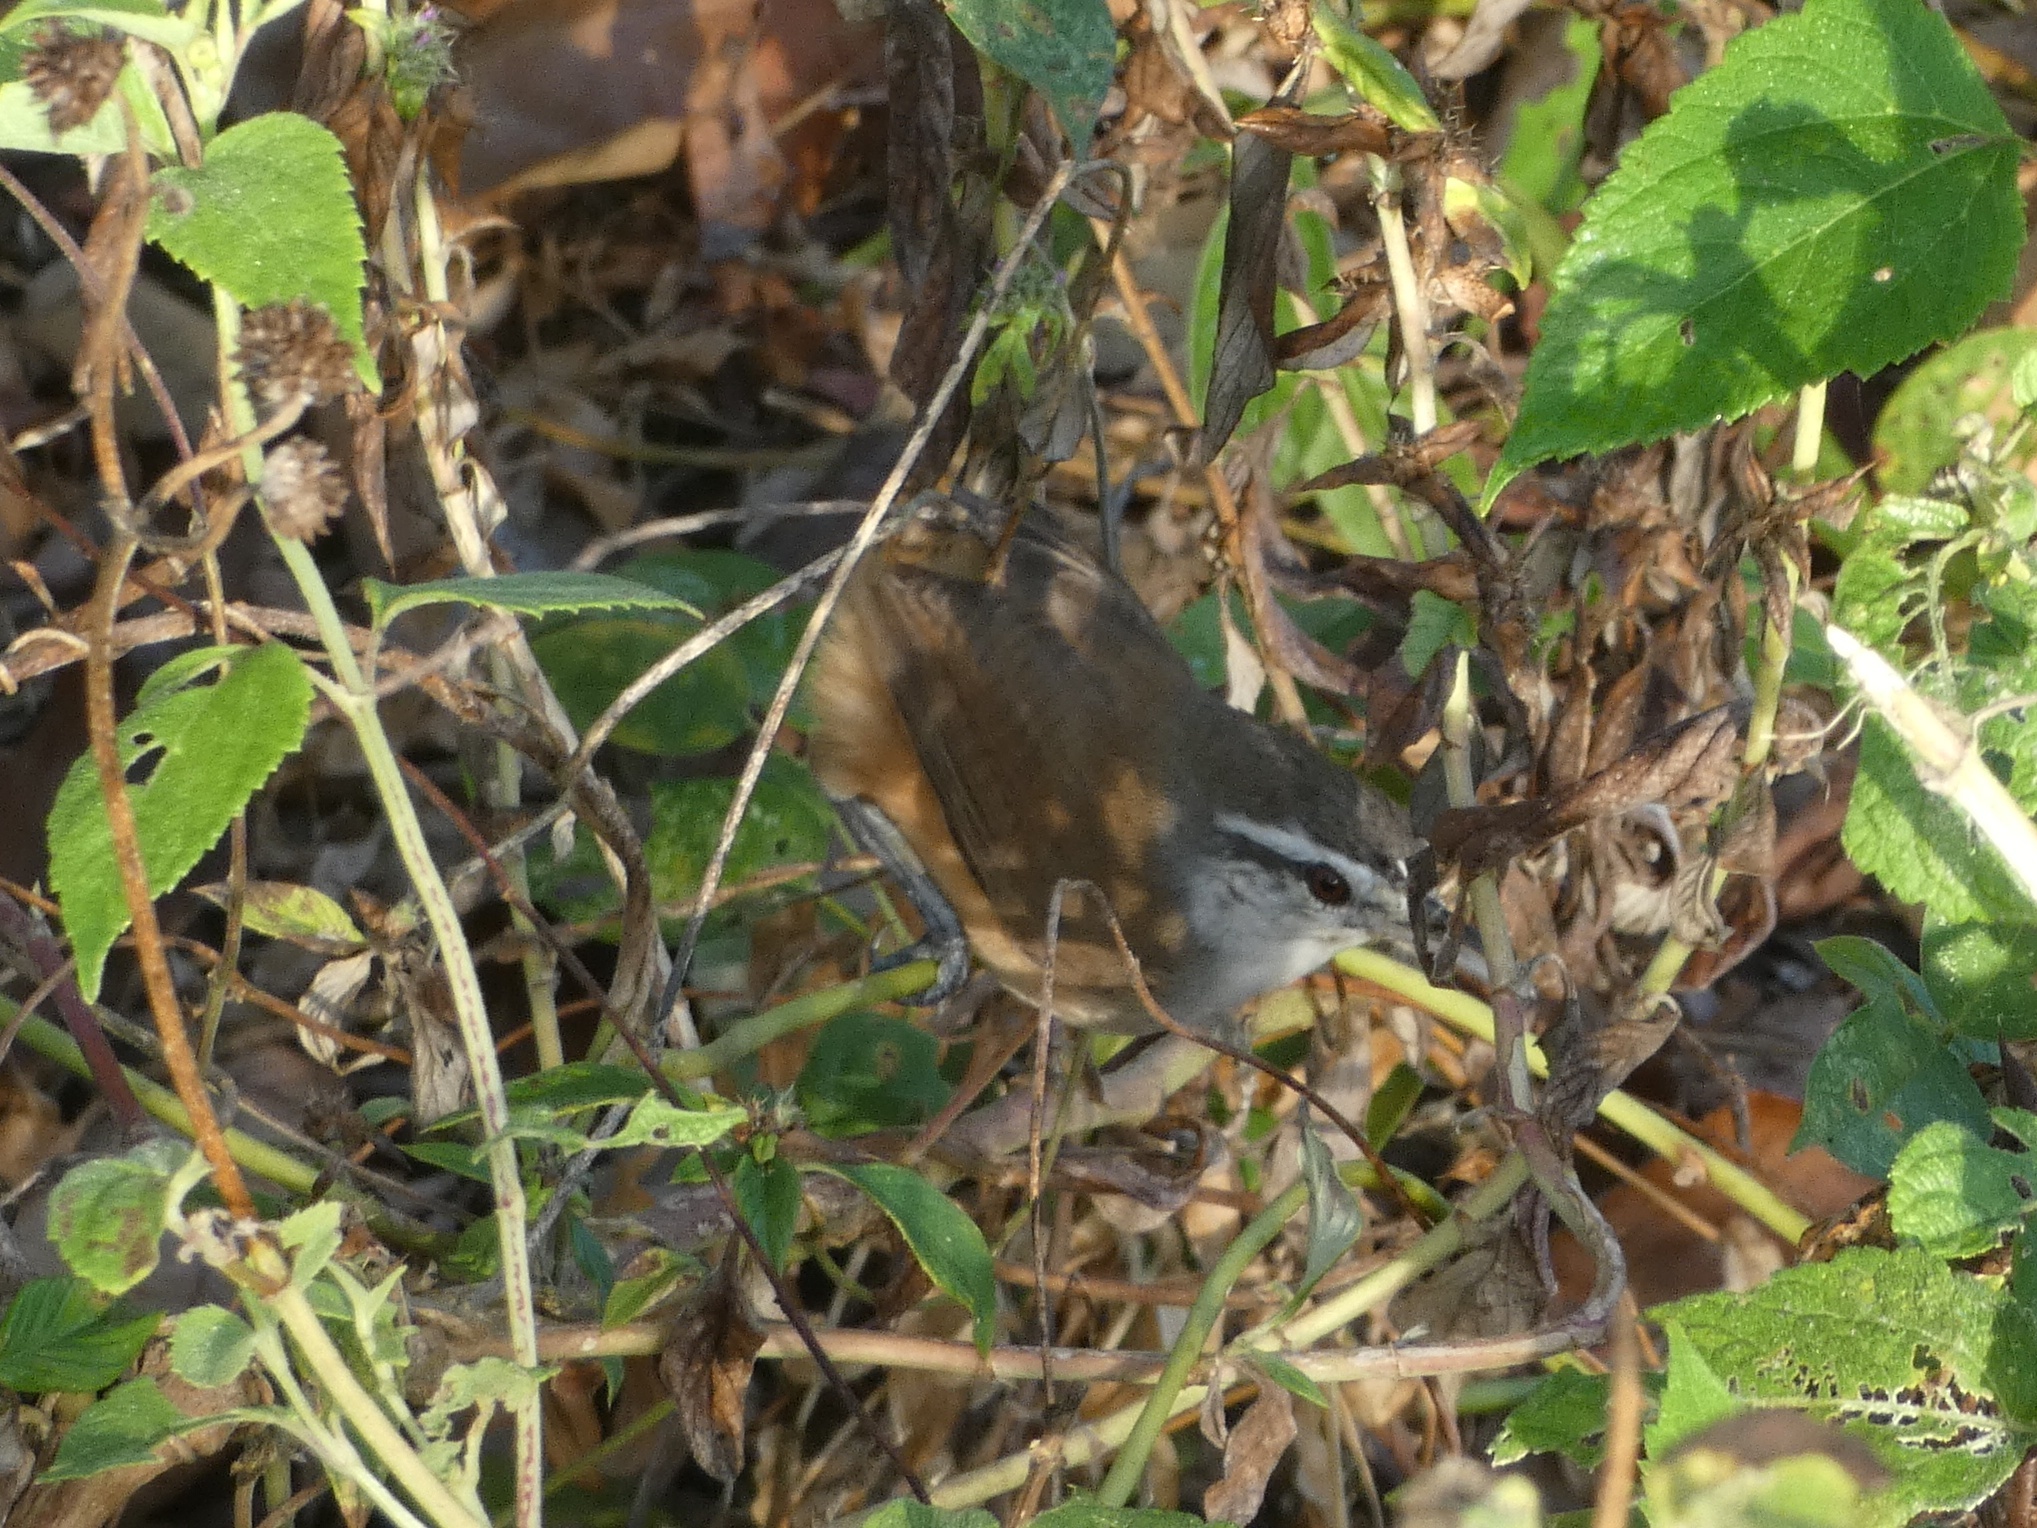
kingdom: Animalia
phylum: Chordata
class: Aves
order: Passeriformes
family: Troglodytidae
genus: Cantorchilus
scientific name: Cantorchilus modestus
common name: Cabanis's wren
